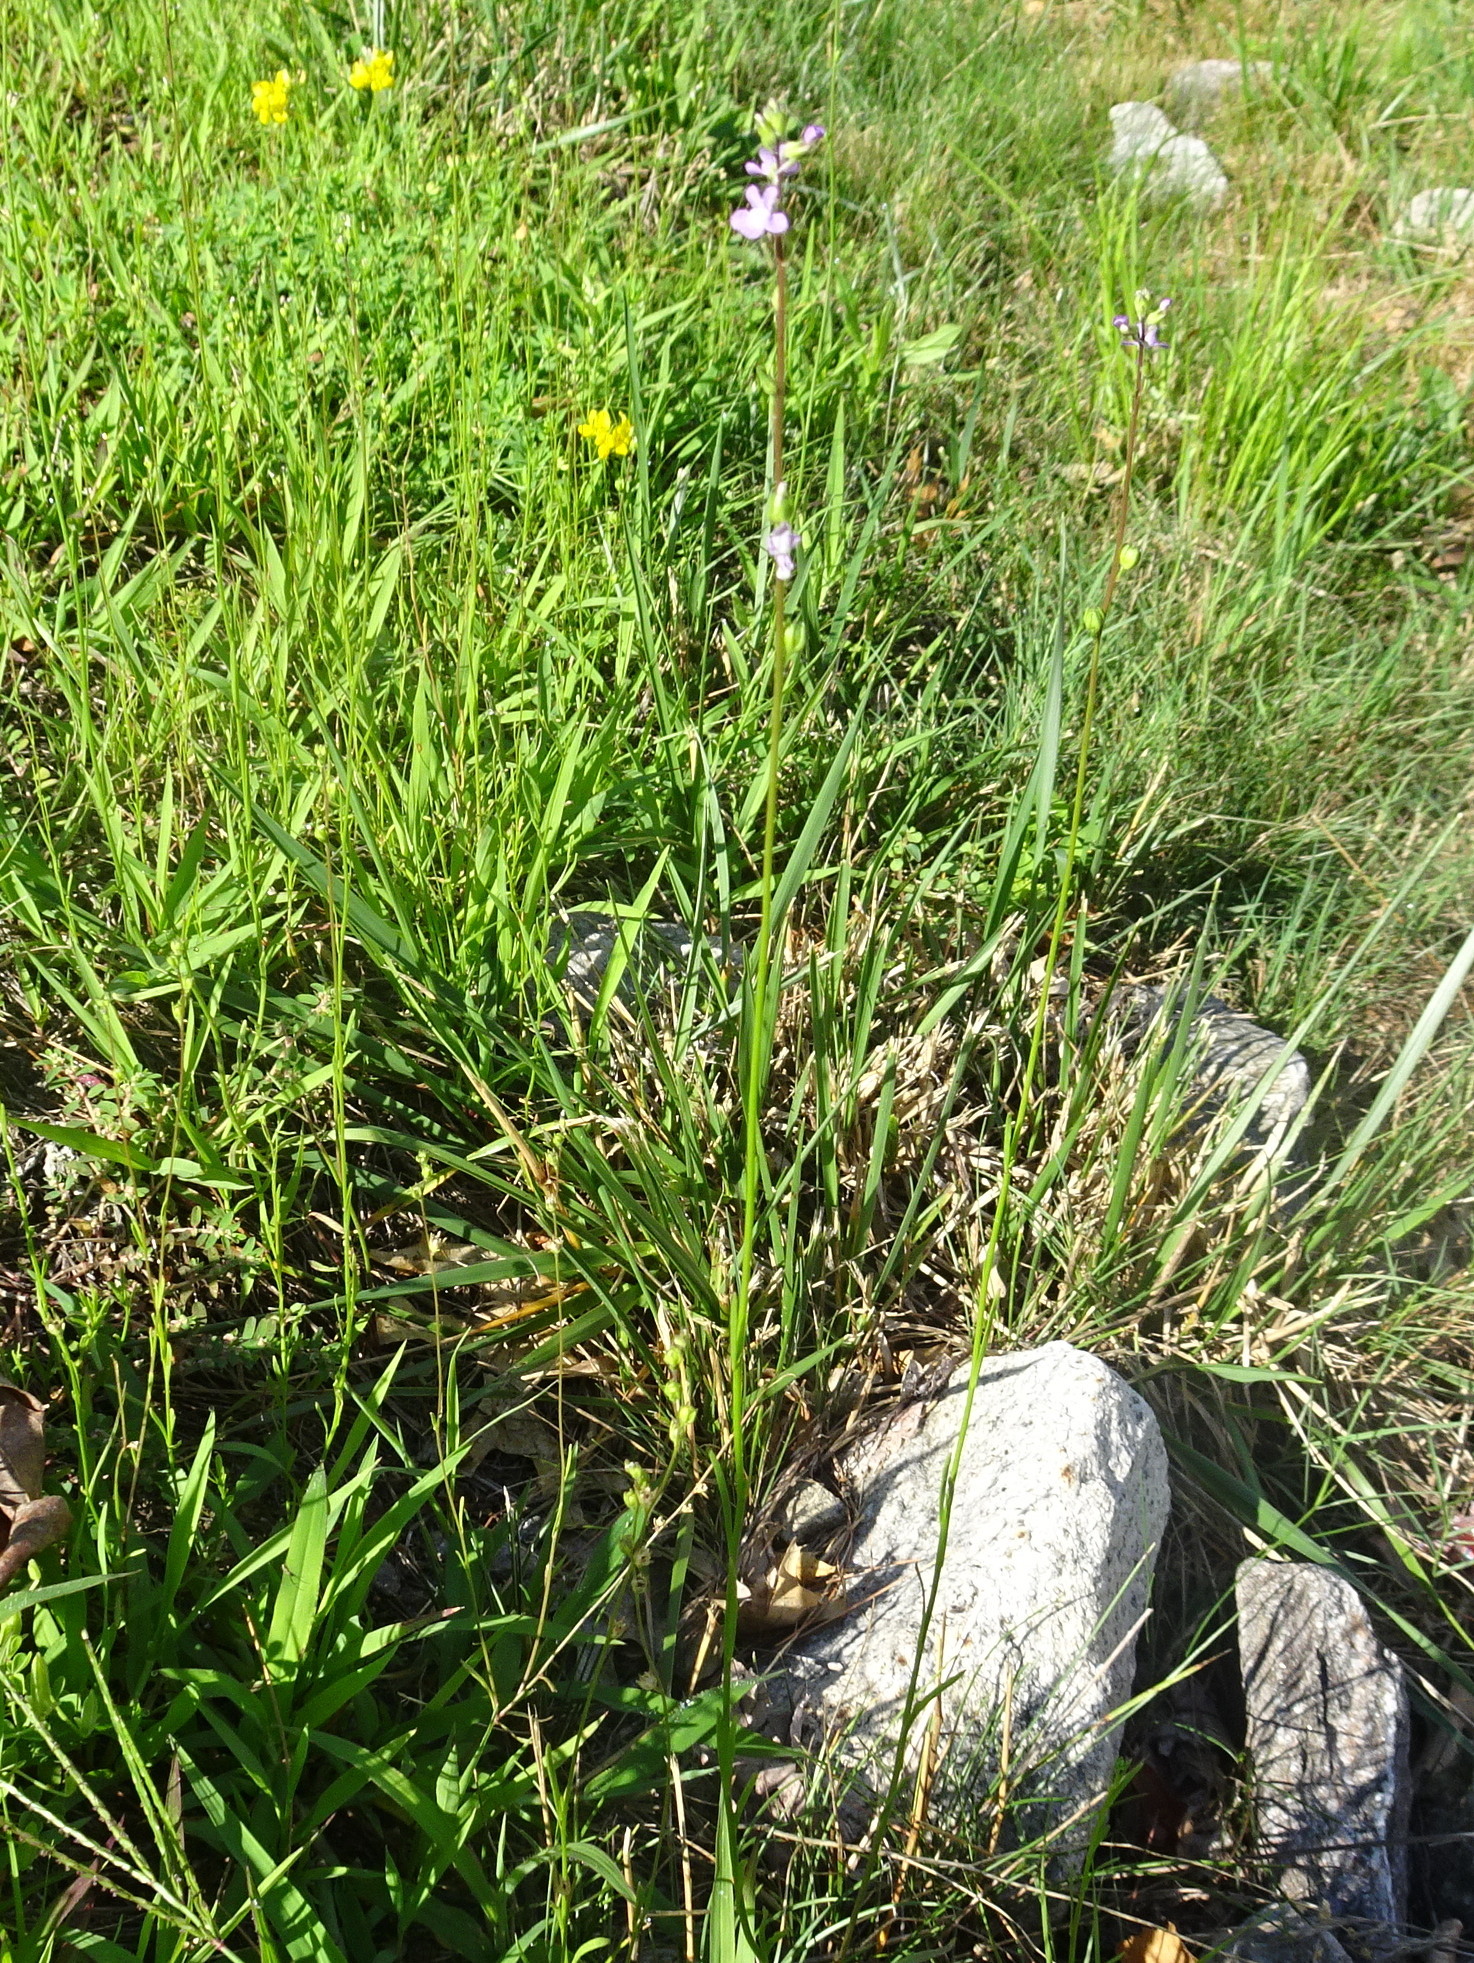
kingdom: Plantae
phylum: Tracheophyta
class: Magnoliopsida
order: Lamiales
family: Plantaginaceae
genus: Nuttallanthus
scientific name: Nuttallanthus canadensis
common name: Blue toadflax
